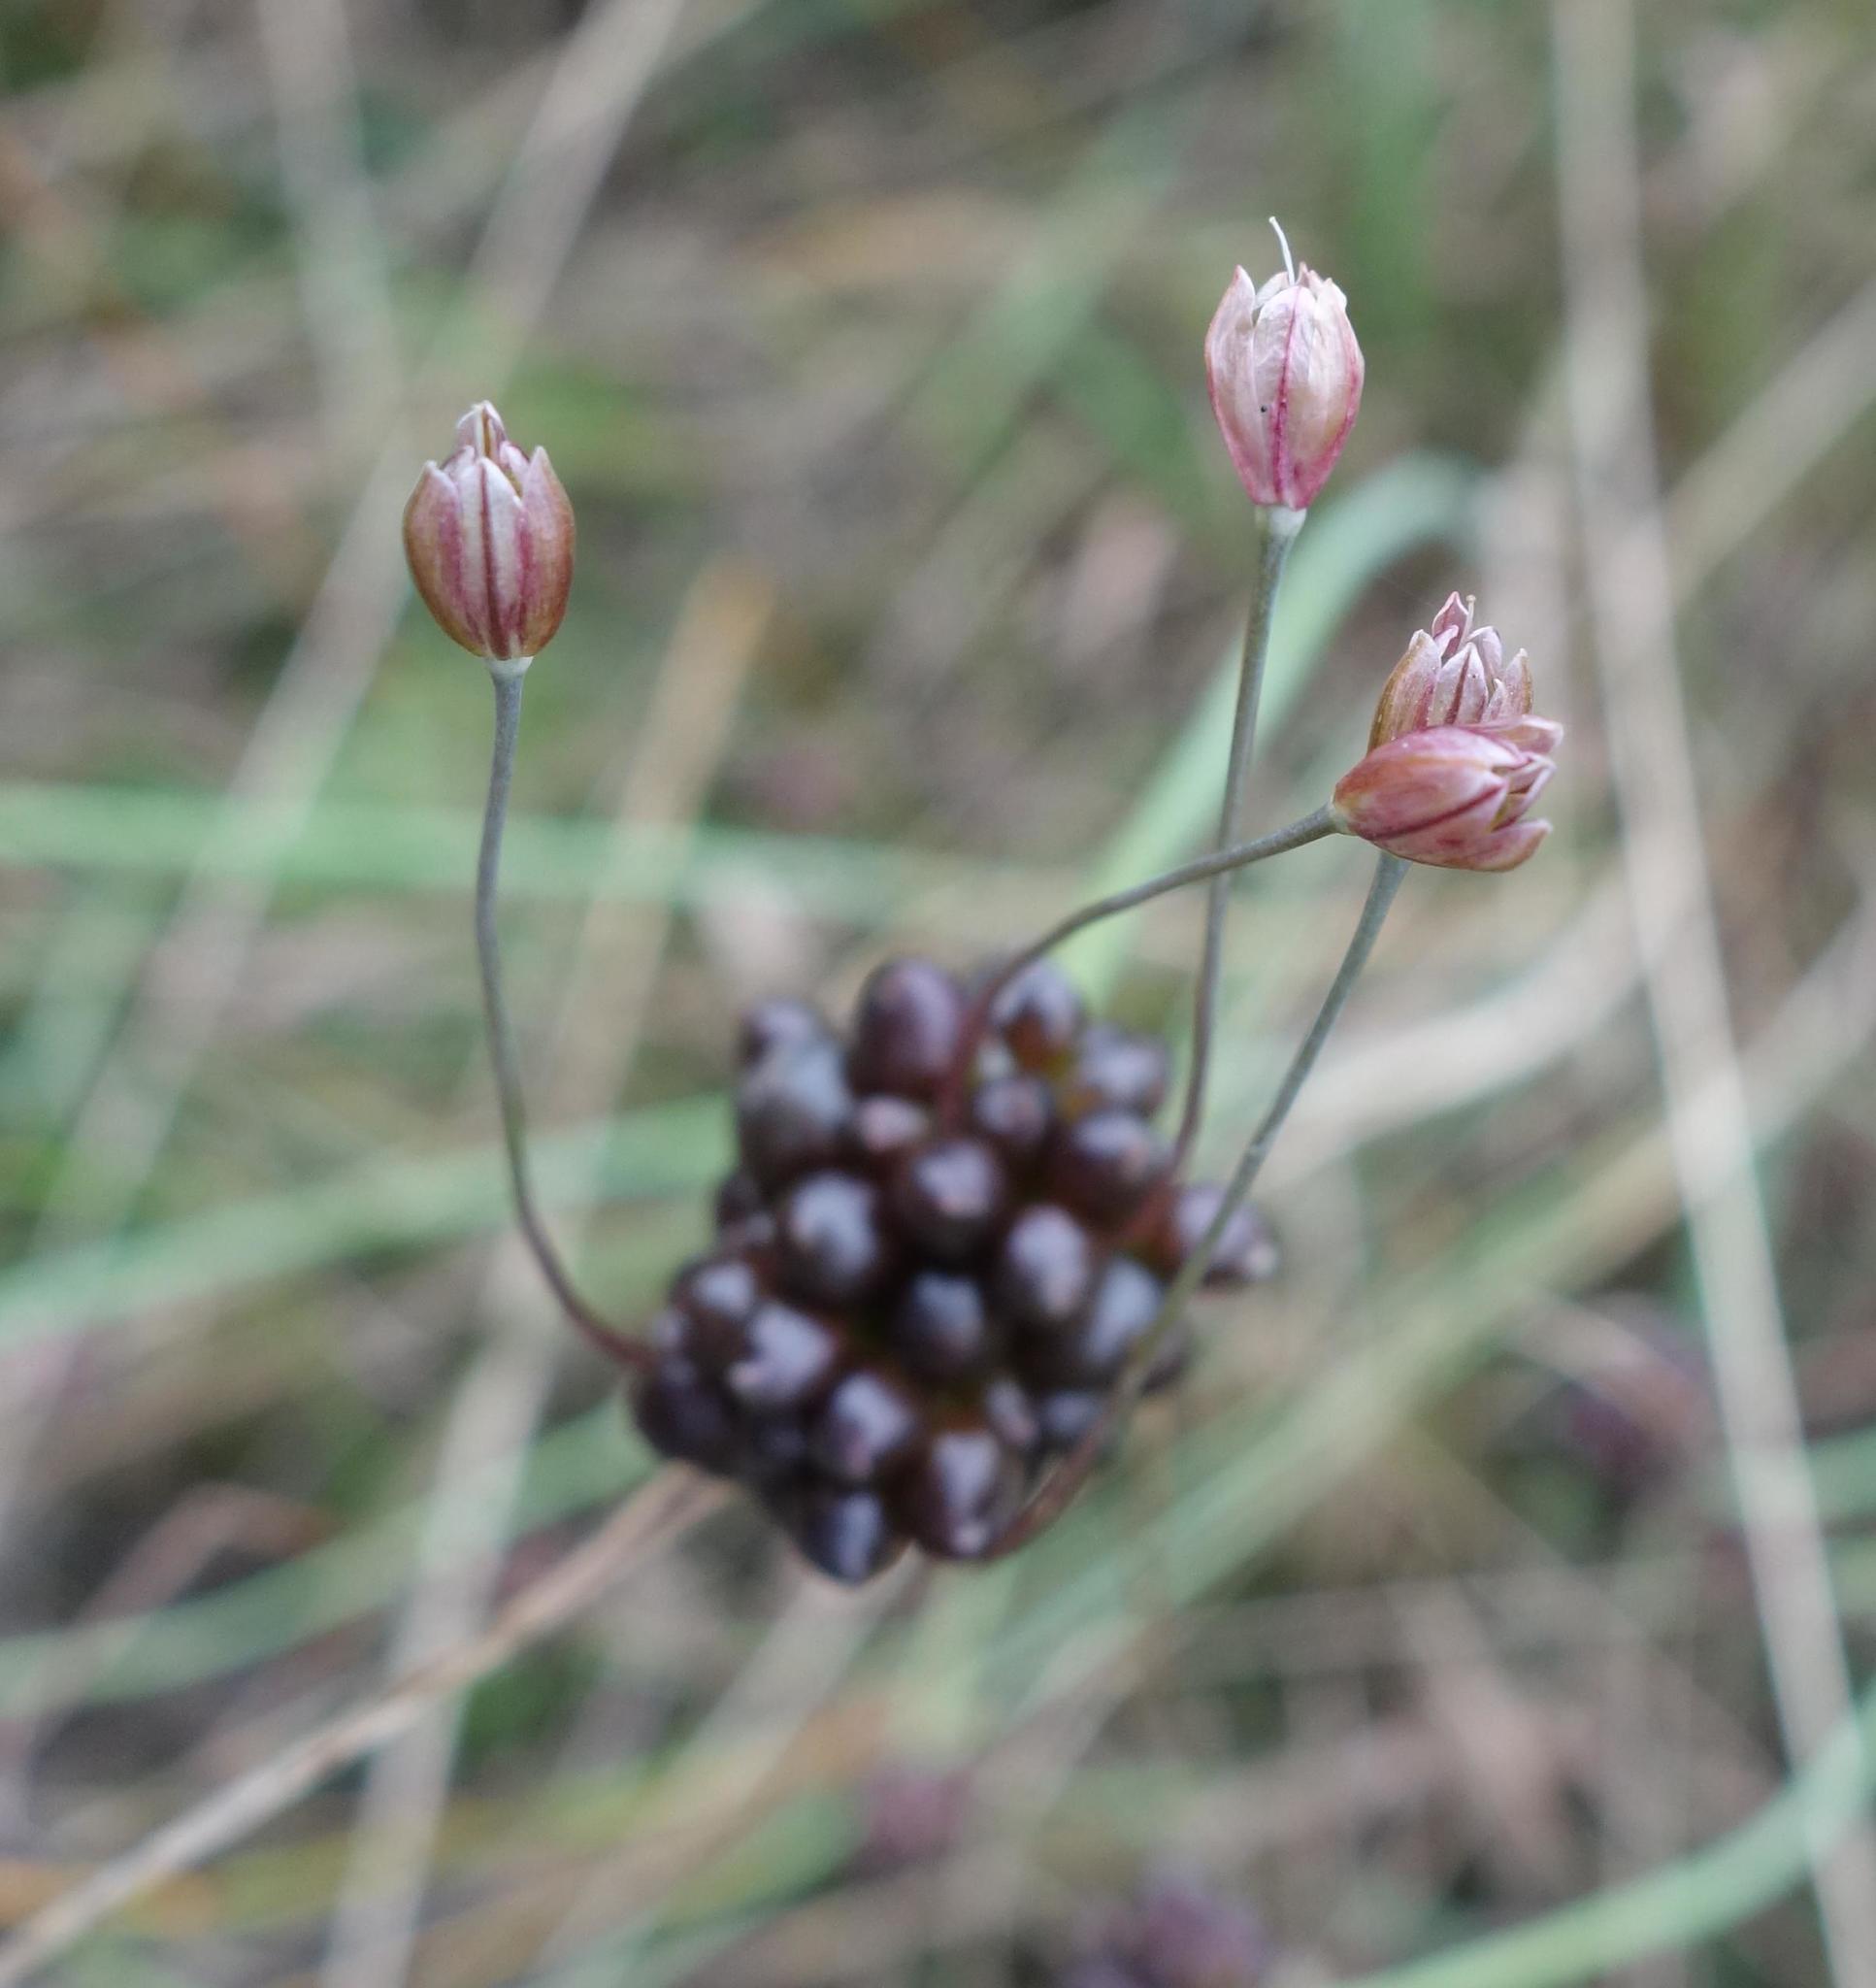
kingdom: Plantae
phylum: Tracheophyta
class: Liliopsida
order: Asparagales
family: Amaryllidaceae
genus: Allium
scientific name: Allium oleraceum
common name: Field garlic
